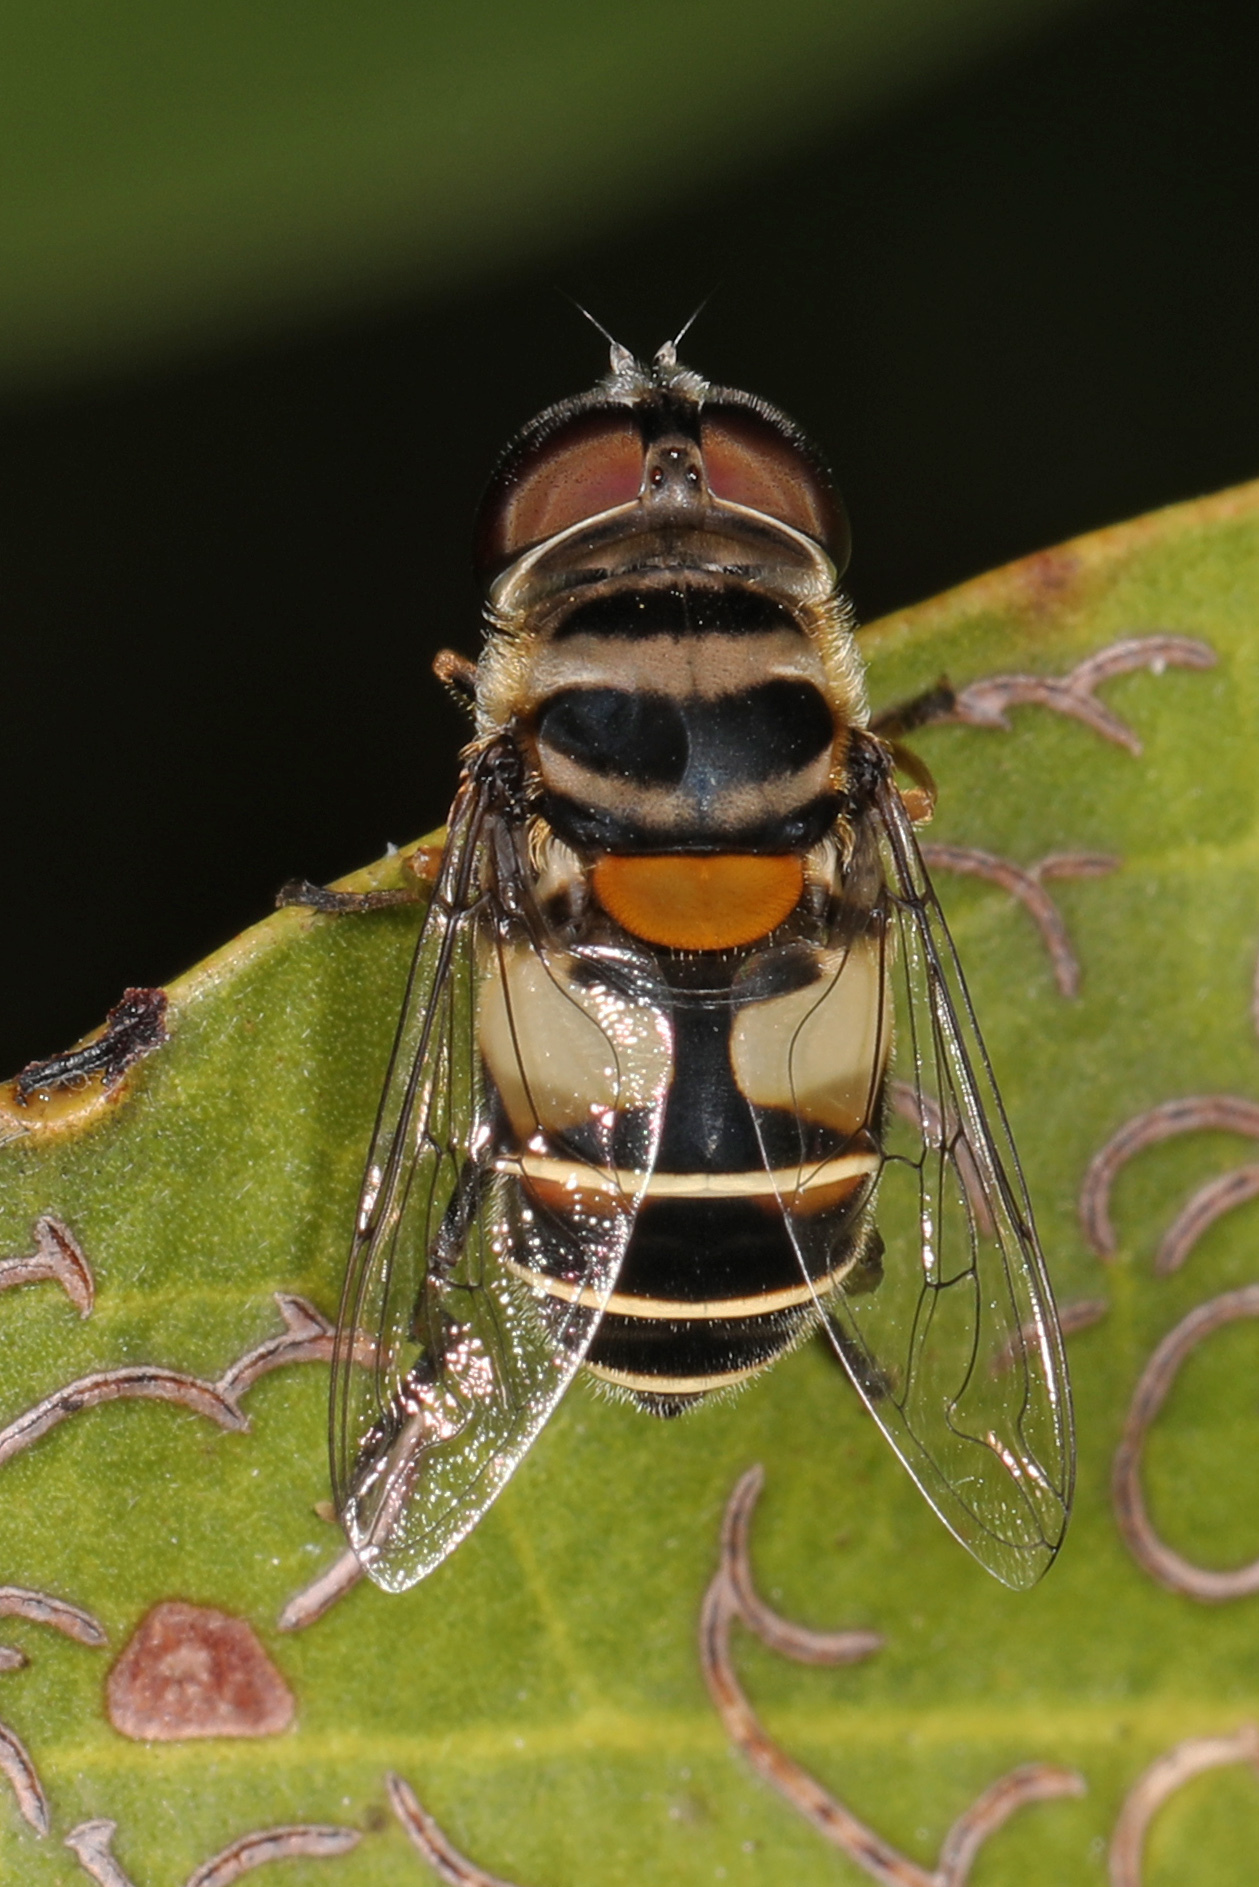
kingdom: Animalia
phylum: Arthropoda
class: Insecta
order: Diptera
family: Syrphidae
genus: Palpada
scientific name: Palpada albifrons
